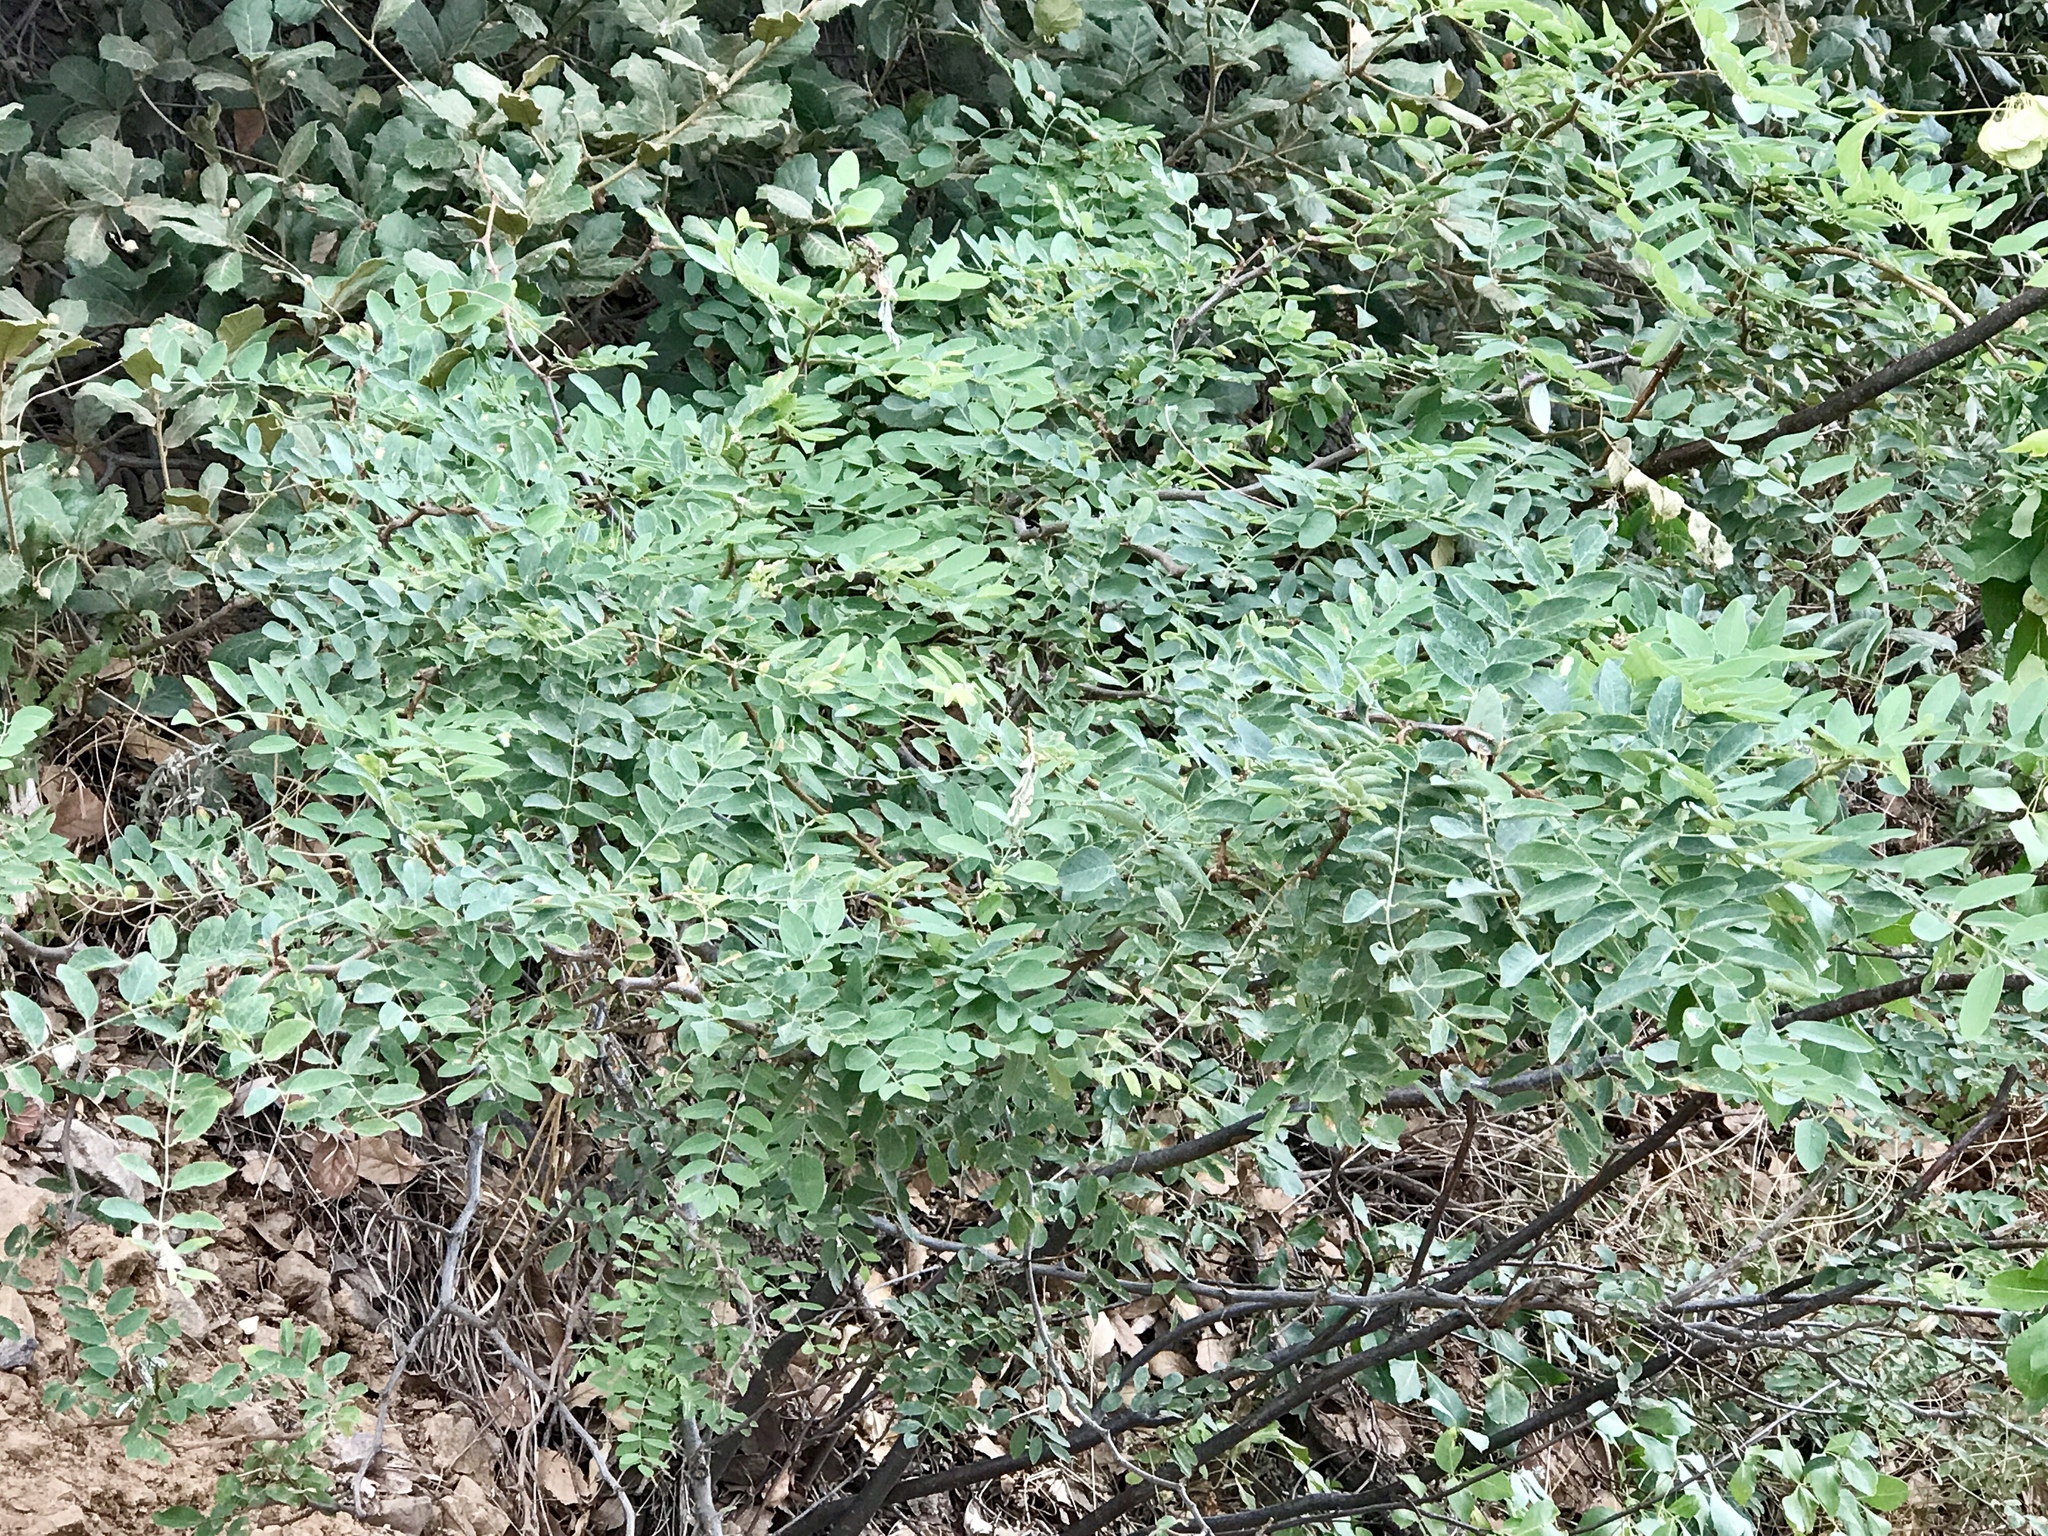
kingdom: Plantae
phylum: Tracheophyta
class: Magnoliopsida
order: Fabales
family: Fabaceae
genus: Robinia
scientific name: Robinia neomexicana
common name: New mexico locust
